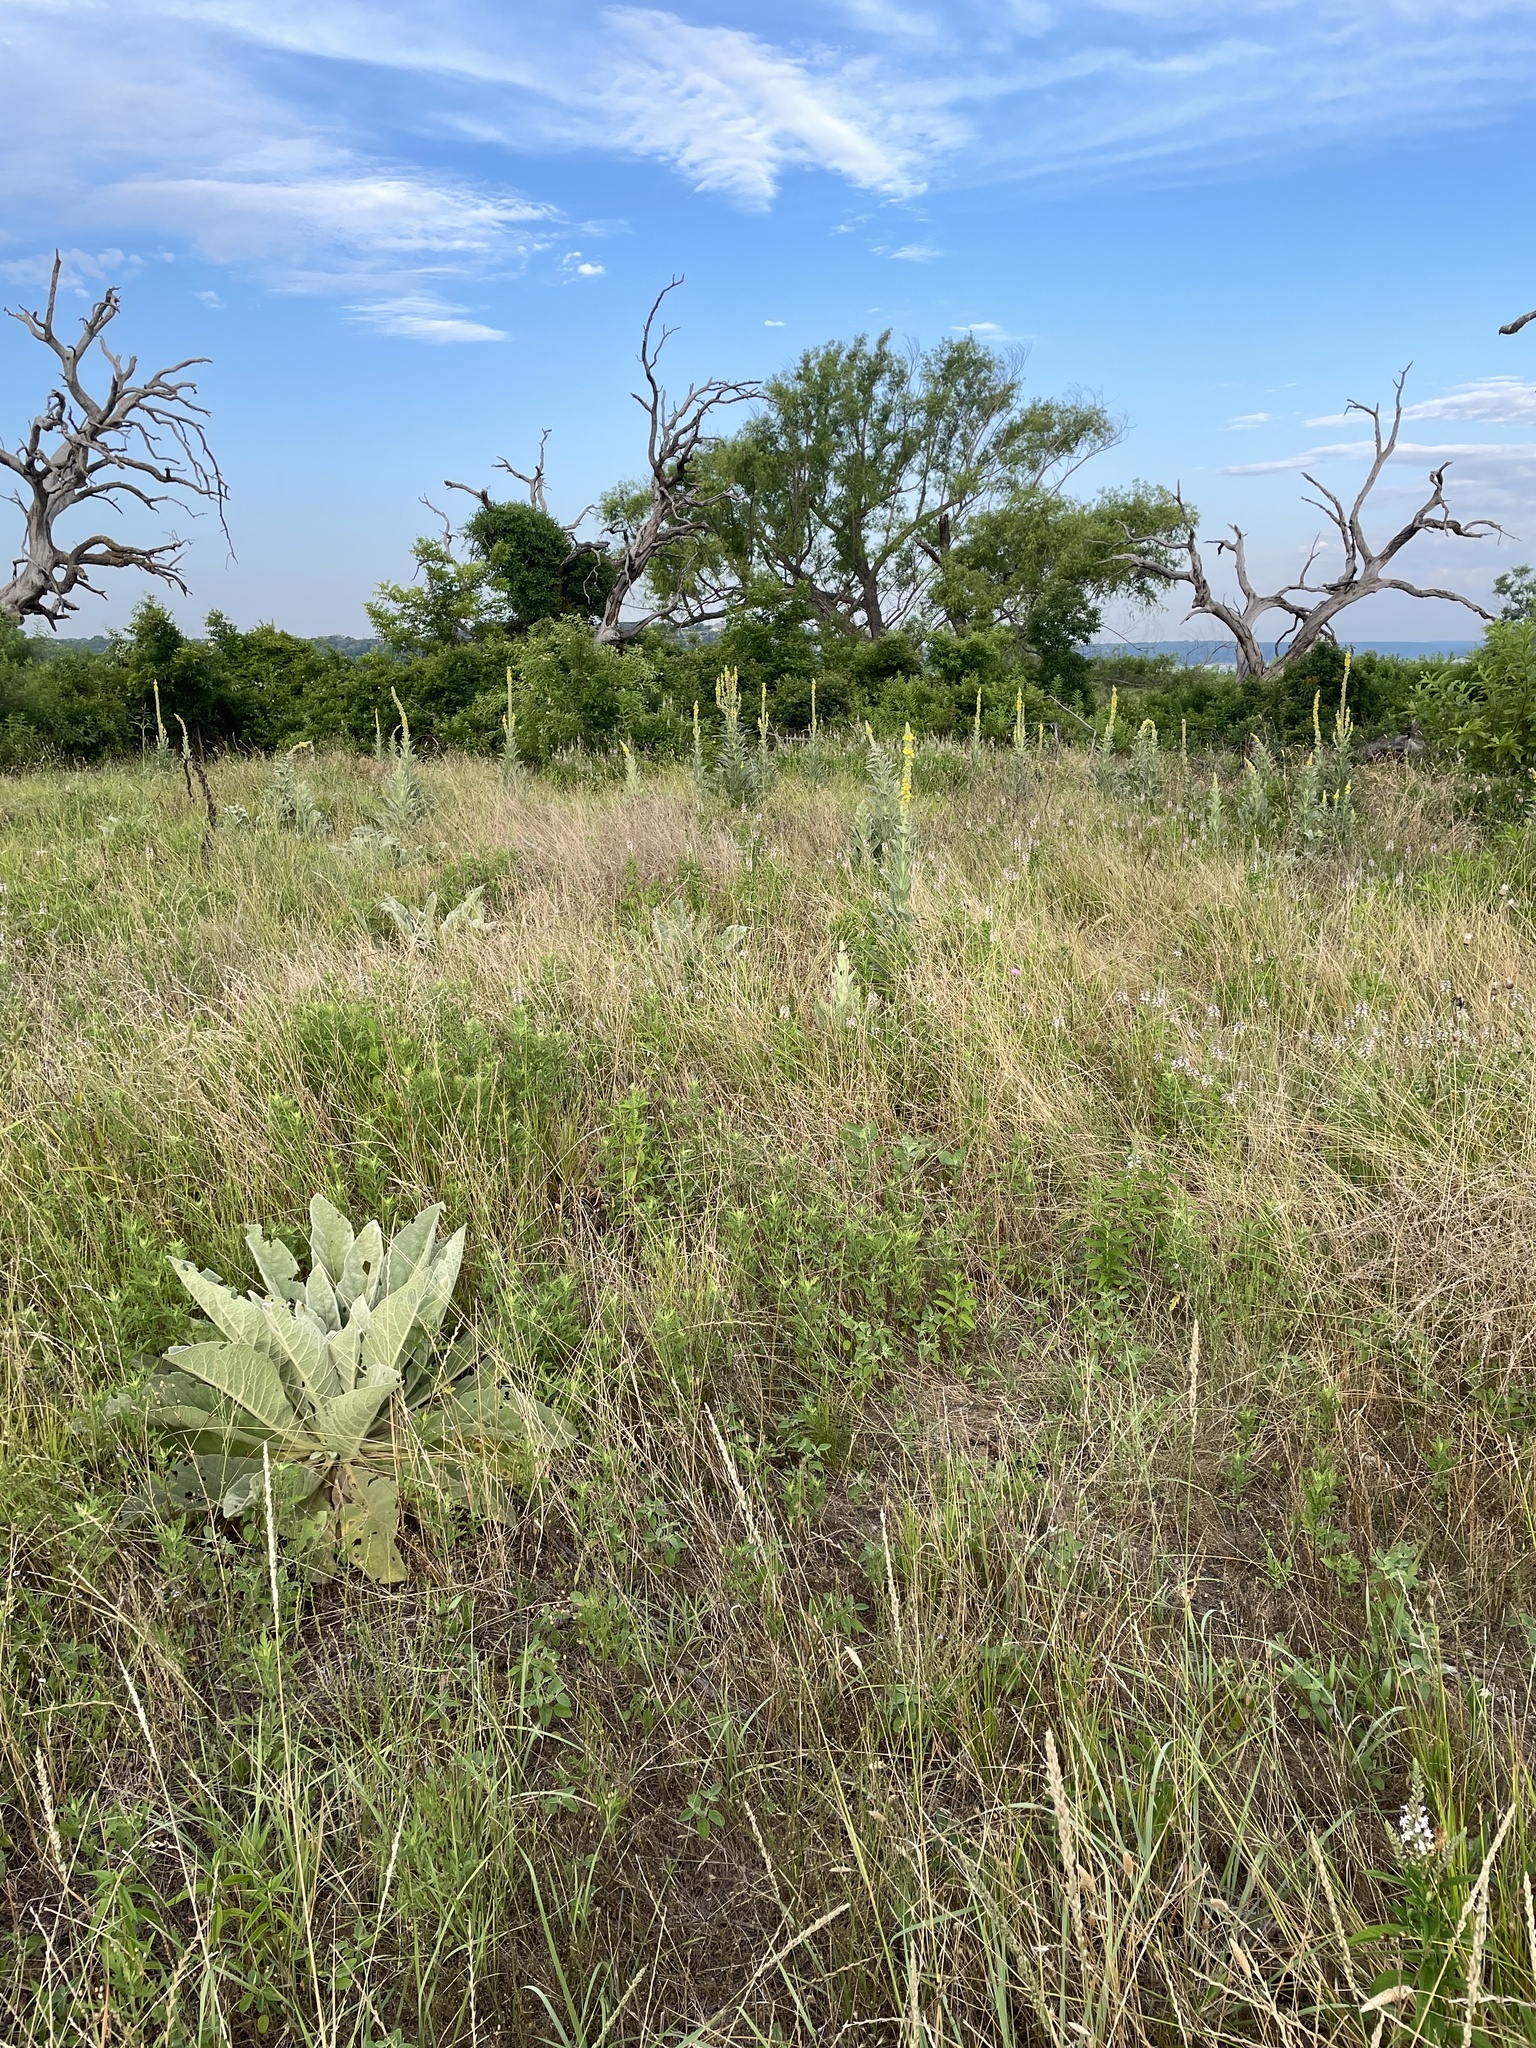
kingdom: Plantae
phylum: Tracheophyta
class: Magnoliopsida
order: Lamiales
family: Scrophulariaceae
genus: Verbascum
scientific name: Verbascum thapsus
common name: Common mullein
